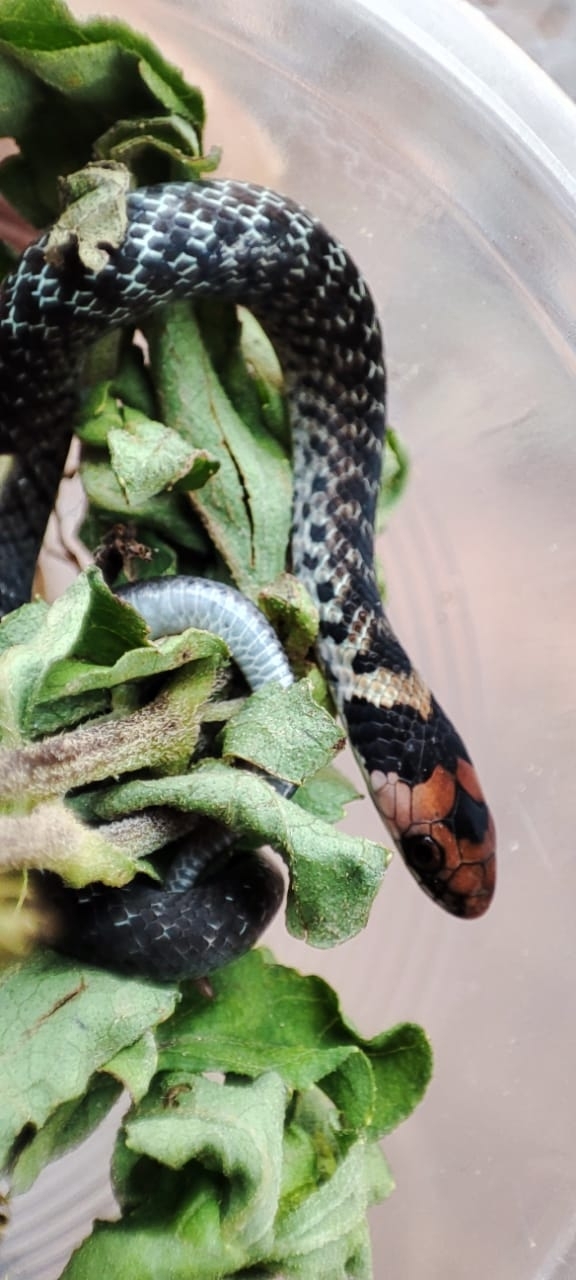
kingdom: Animalia
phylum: Chordata
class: Squamata
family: Colubridae
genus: Erythrolamprus
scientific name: Erythrolamprus pyburni
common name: Pyburn's tropical forest snake
